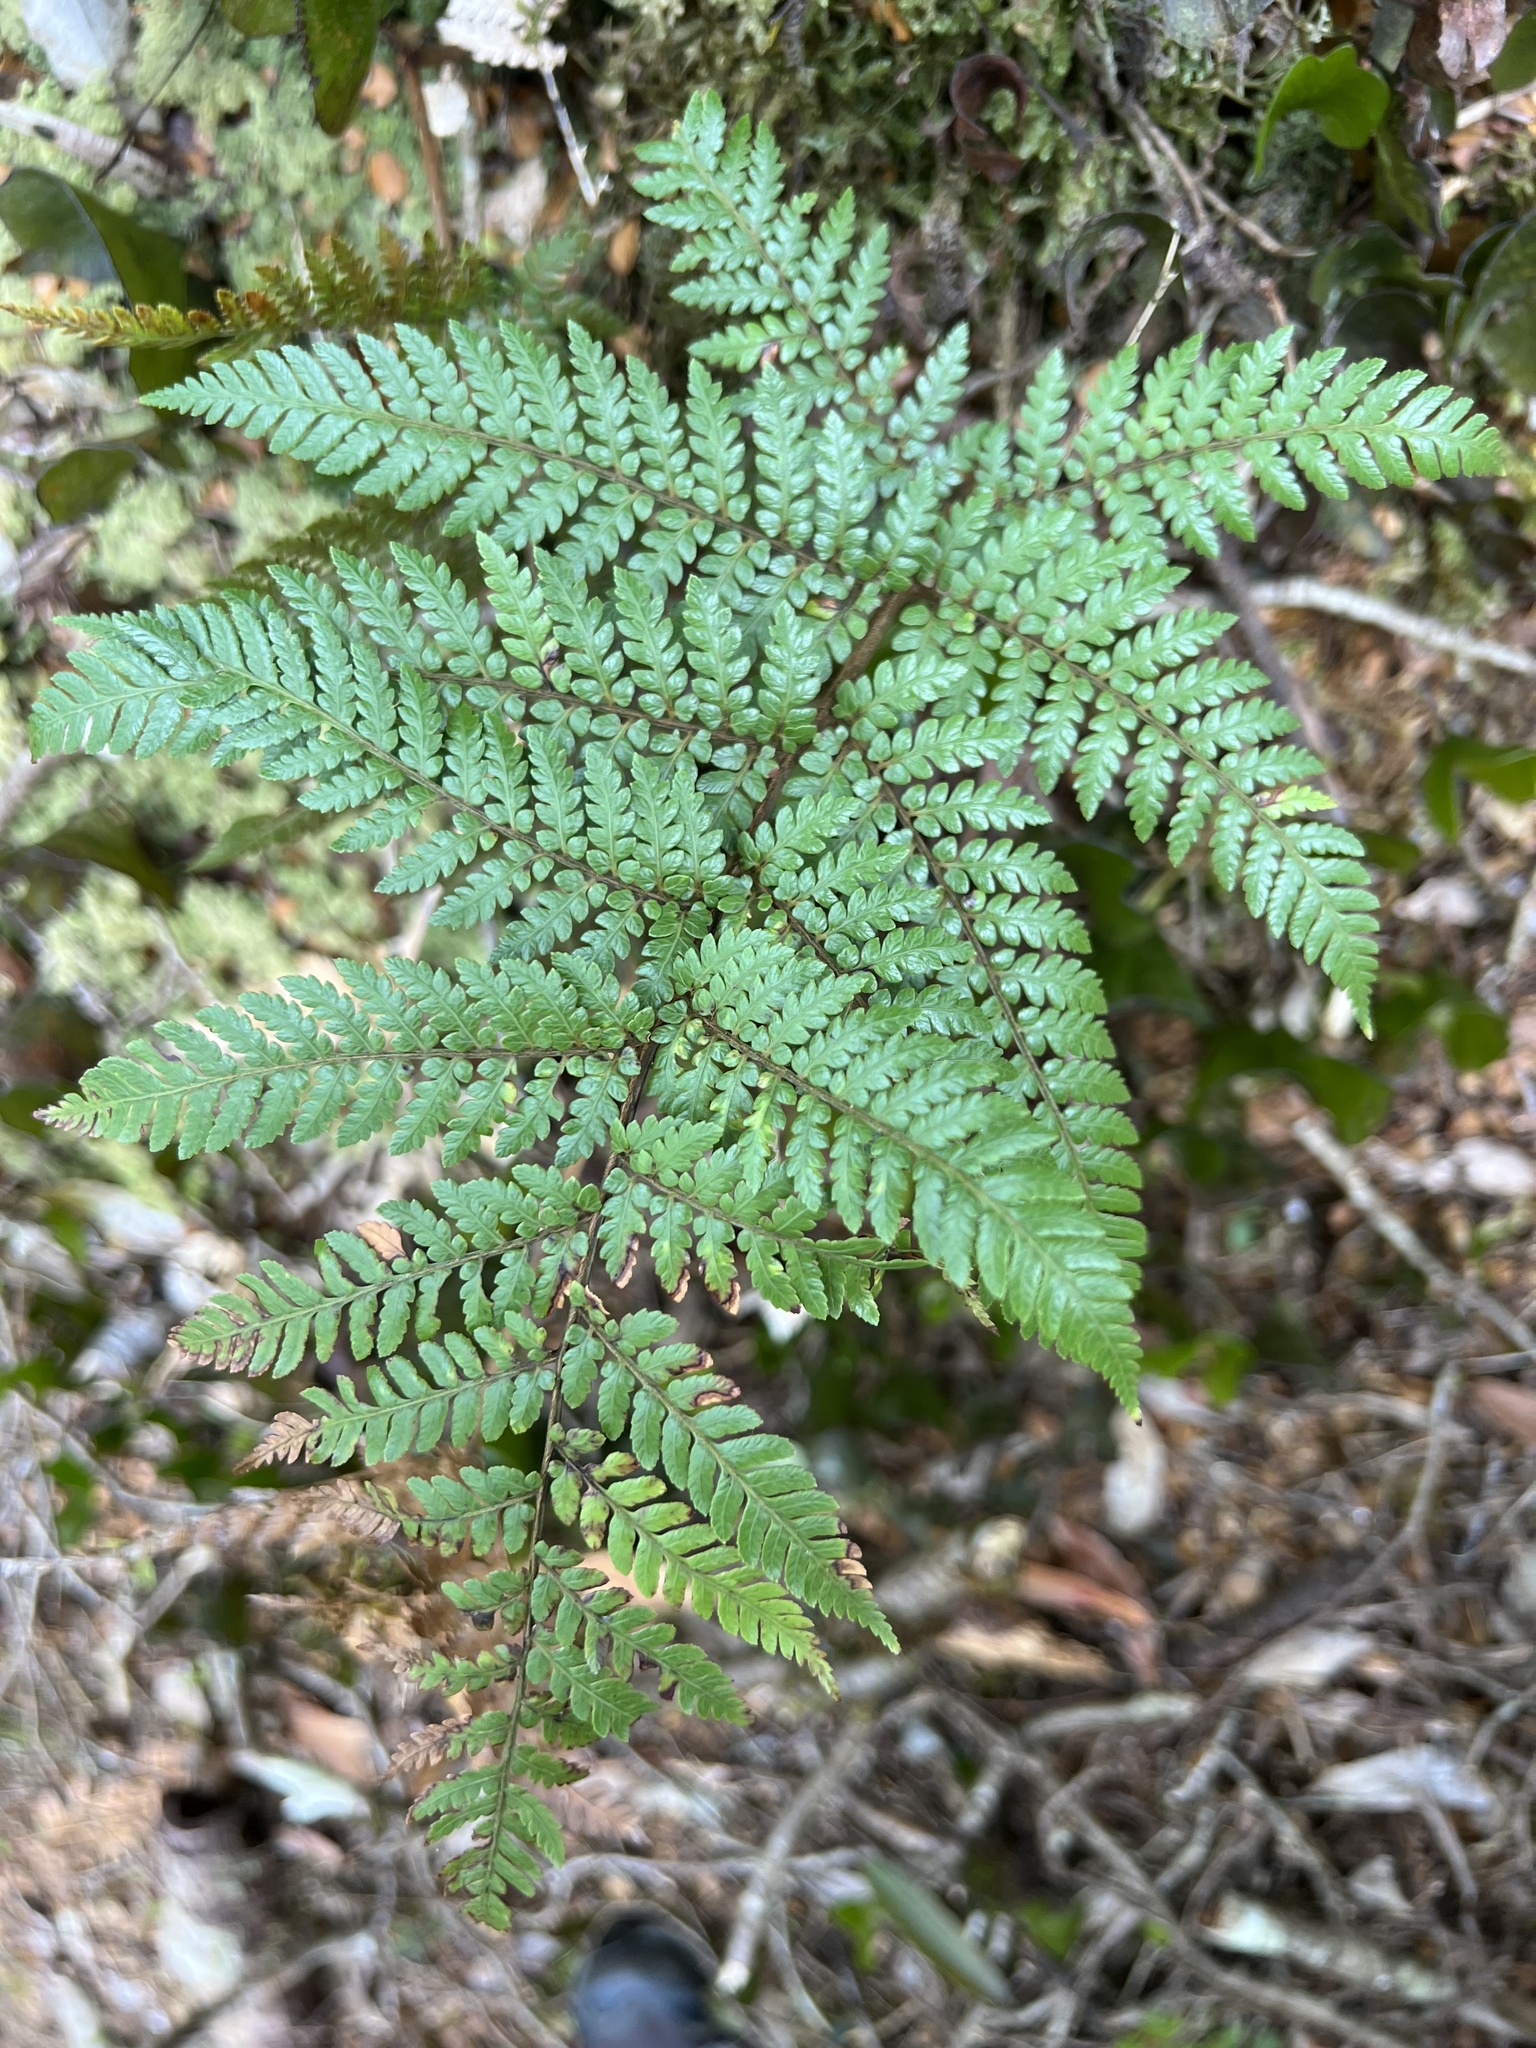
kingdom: Plantae
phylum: Tracheophyta
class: Polypodiopsida
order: Cyatheales
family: Dicksoniaceae
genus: Dicksonia
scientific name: Dicksonia lanata
